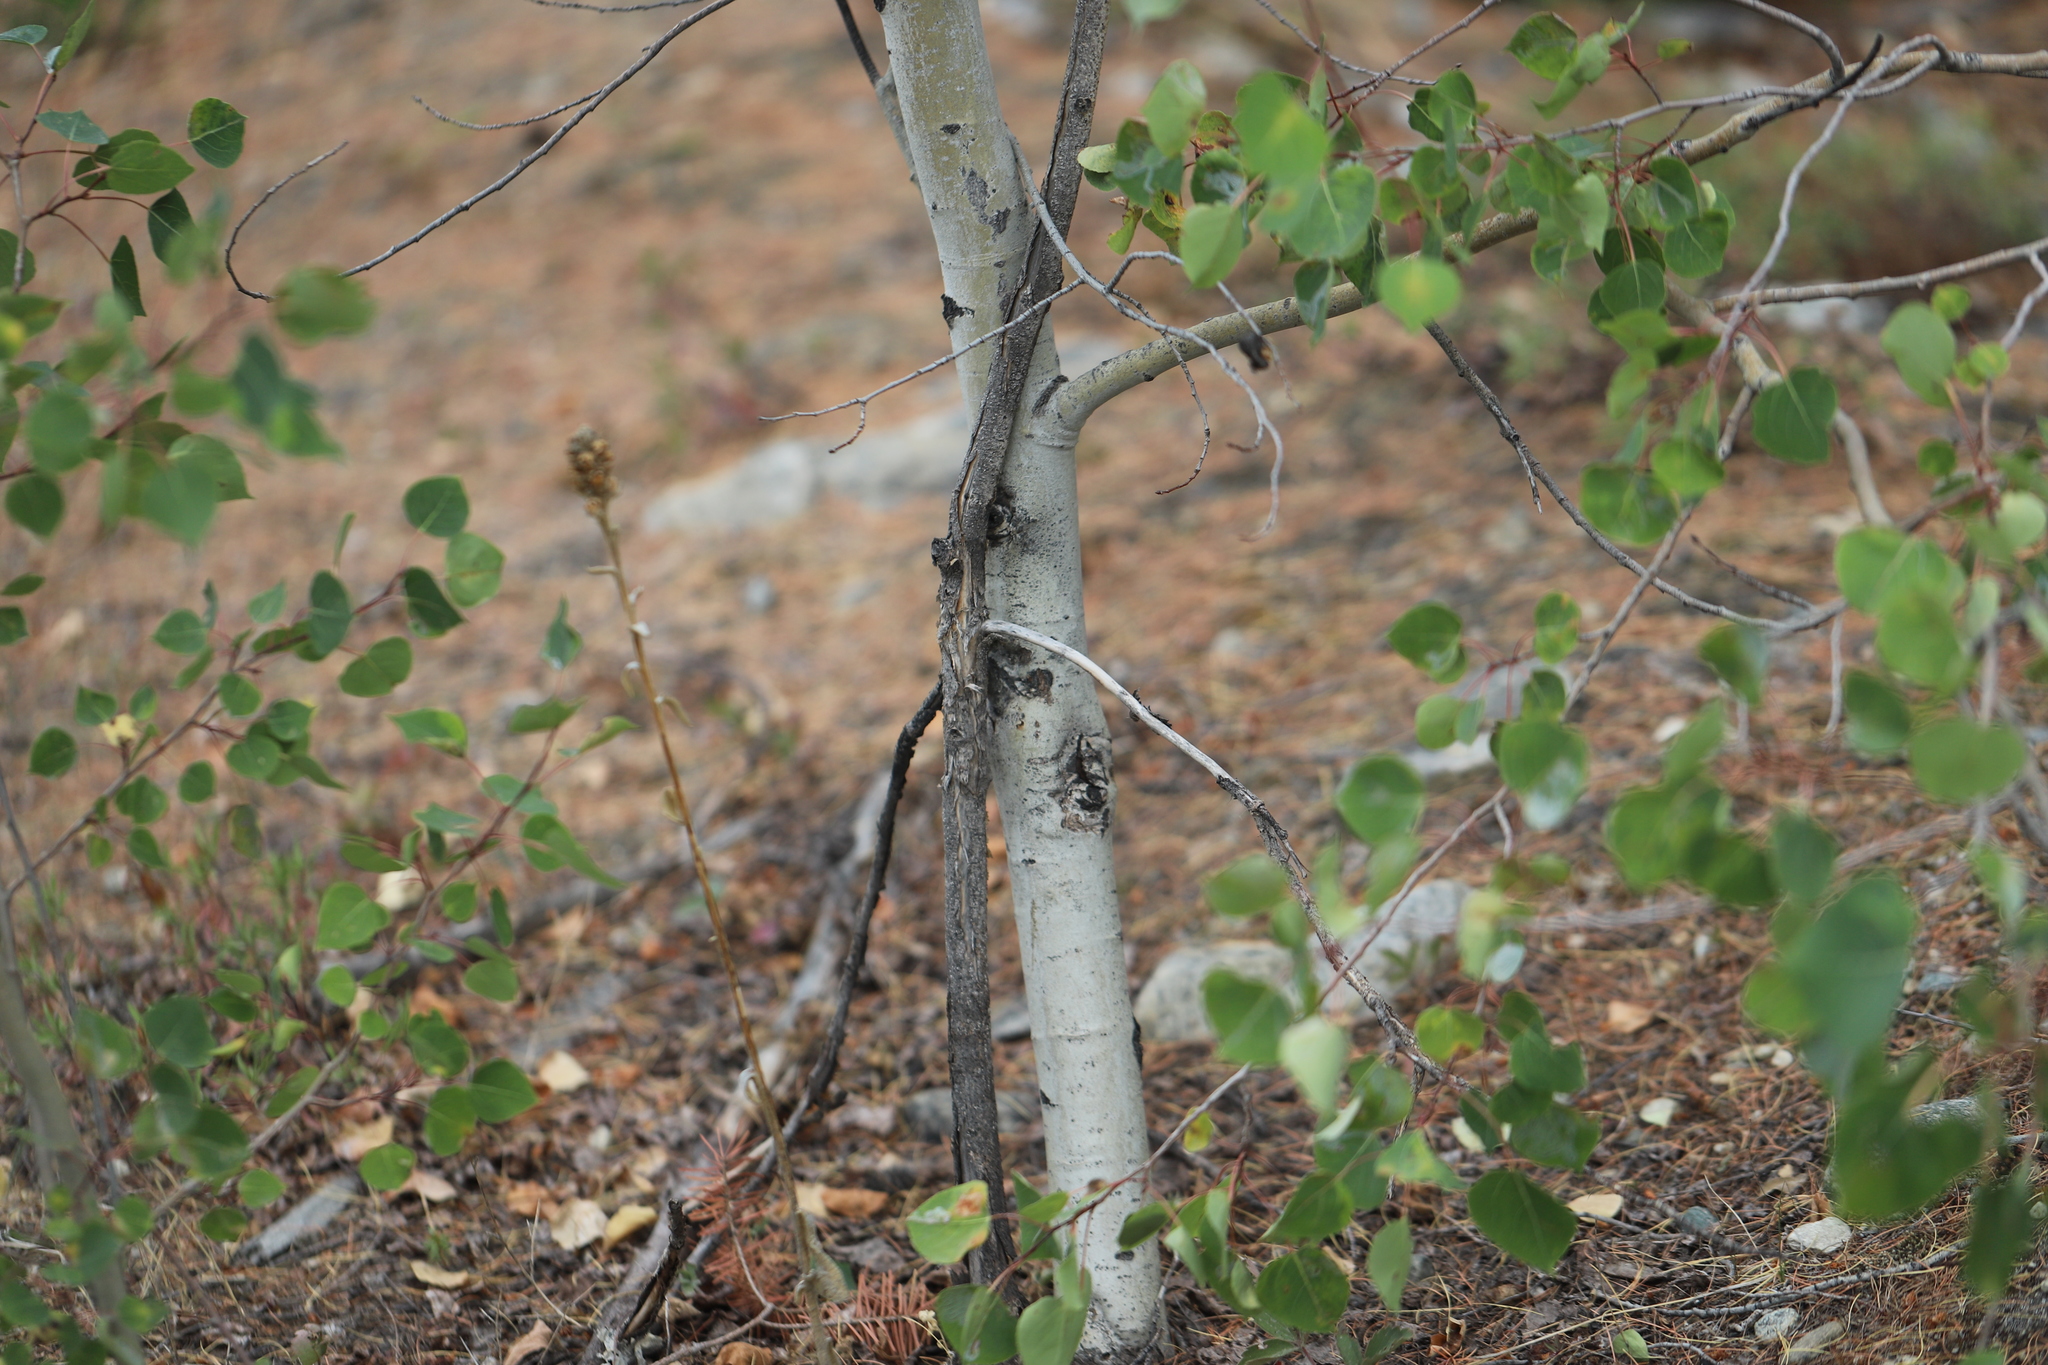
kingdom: Plantae
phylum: Tracheophyta
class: Magnoliopsida
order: Malpighiales
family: Salicaceae
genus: Populus
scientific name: Populus tremuloides
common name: Quaking aspen
